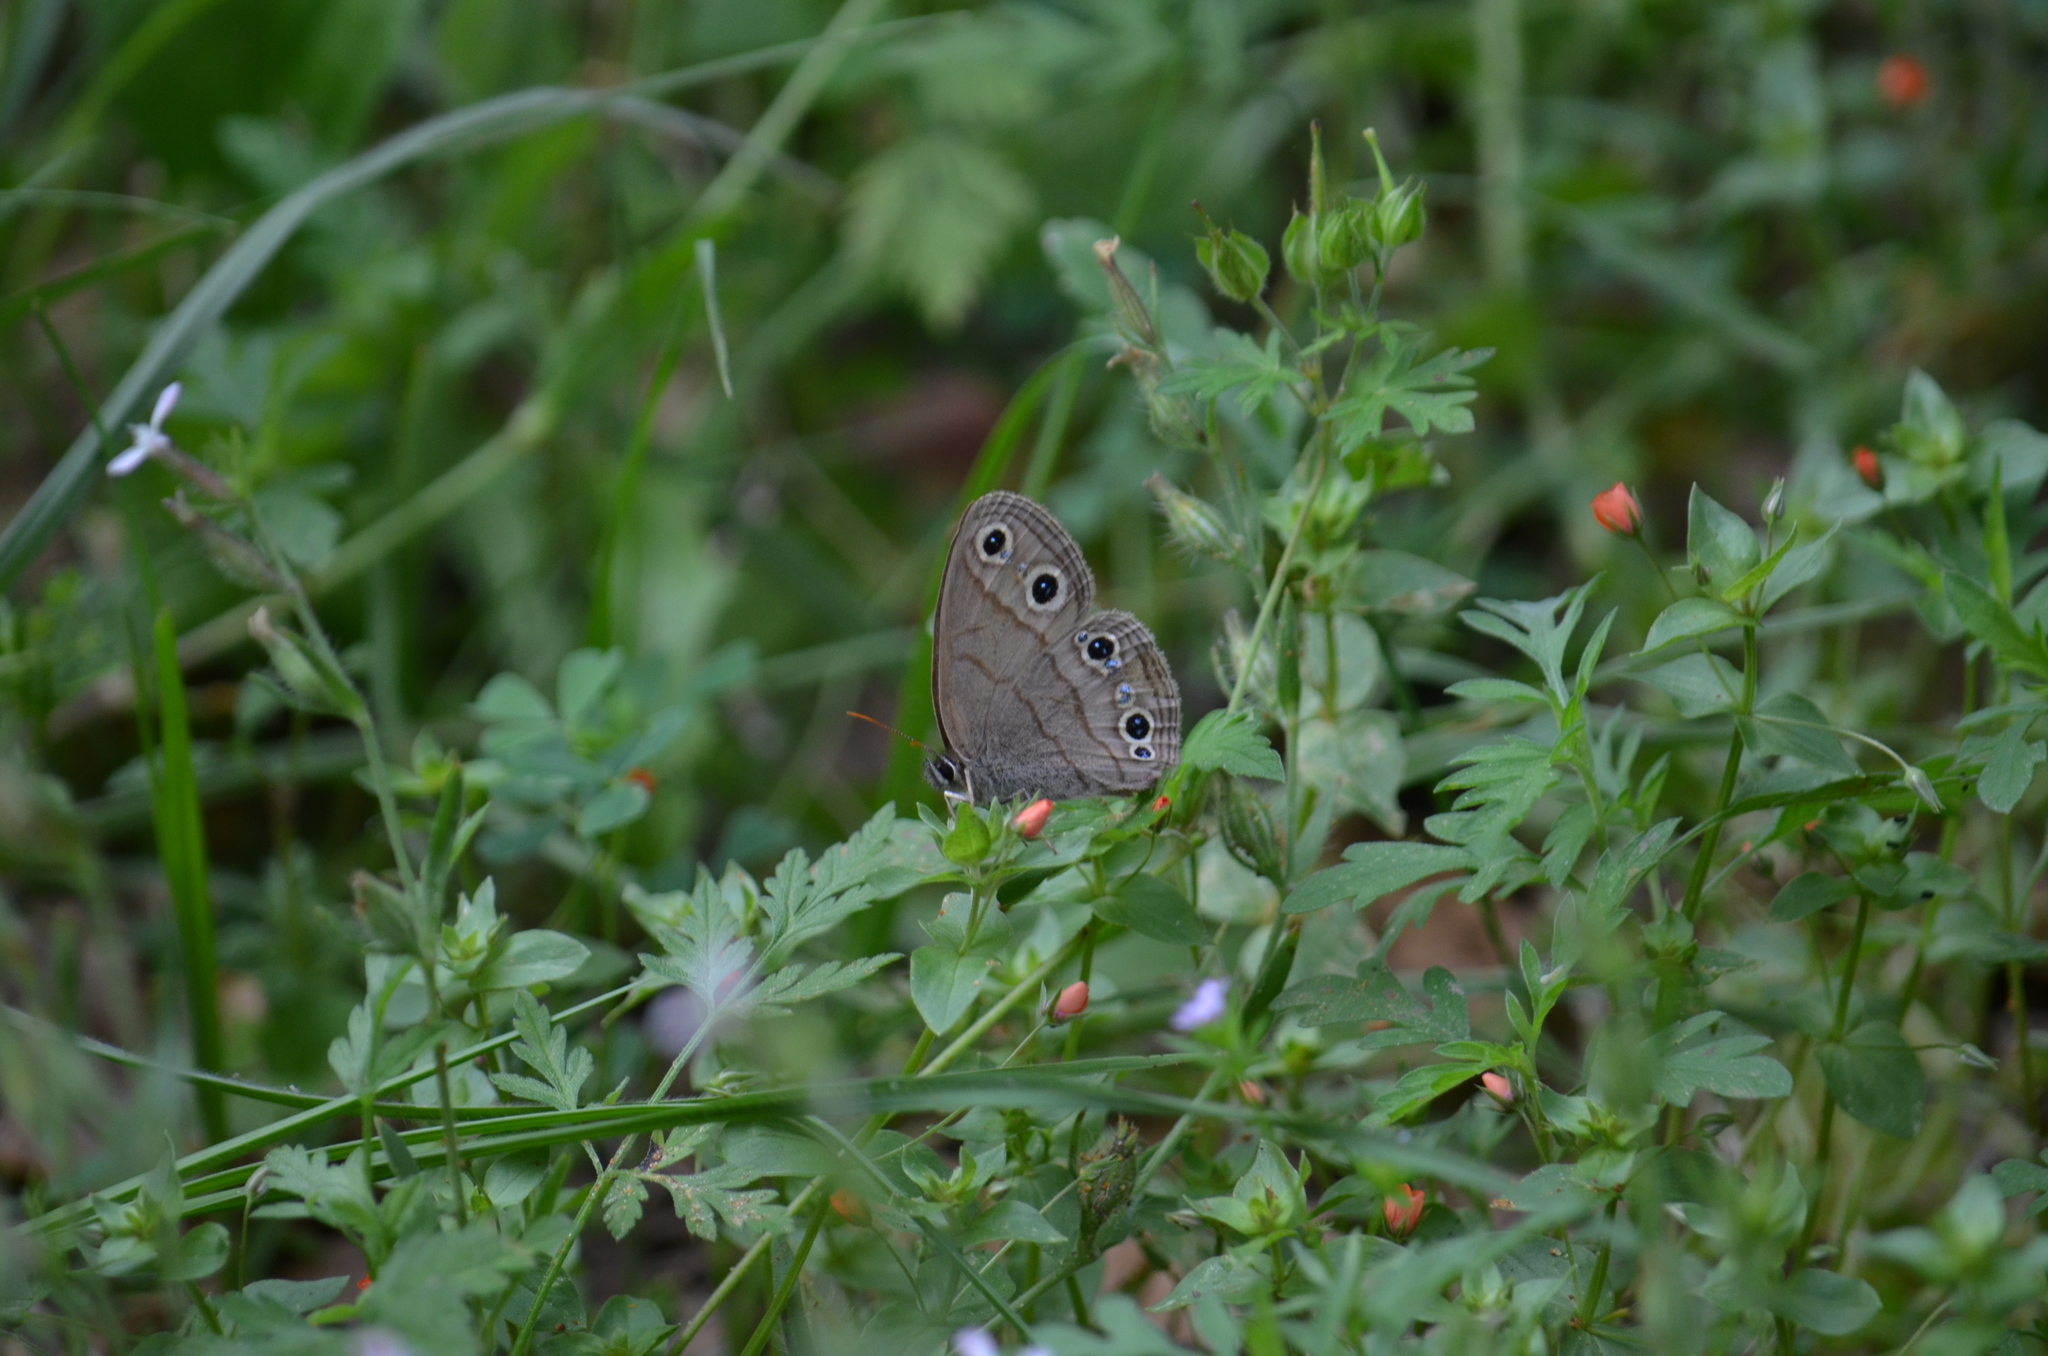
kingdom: Animalia
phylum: Arthropoda
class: Insecta
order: Lepidoptera
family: Nymphalidae
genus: Euptychia
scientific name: Euptychia cymela
